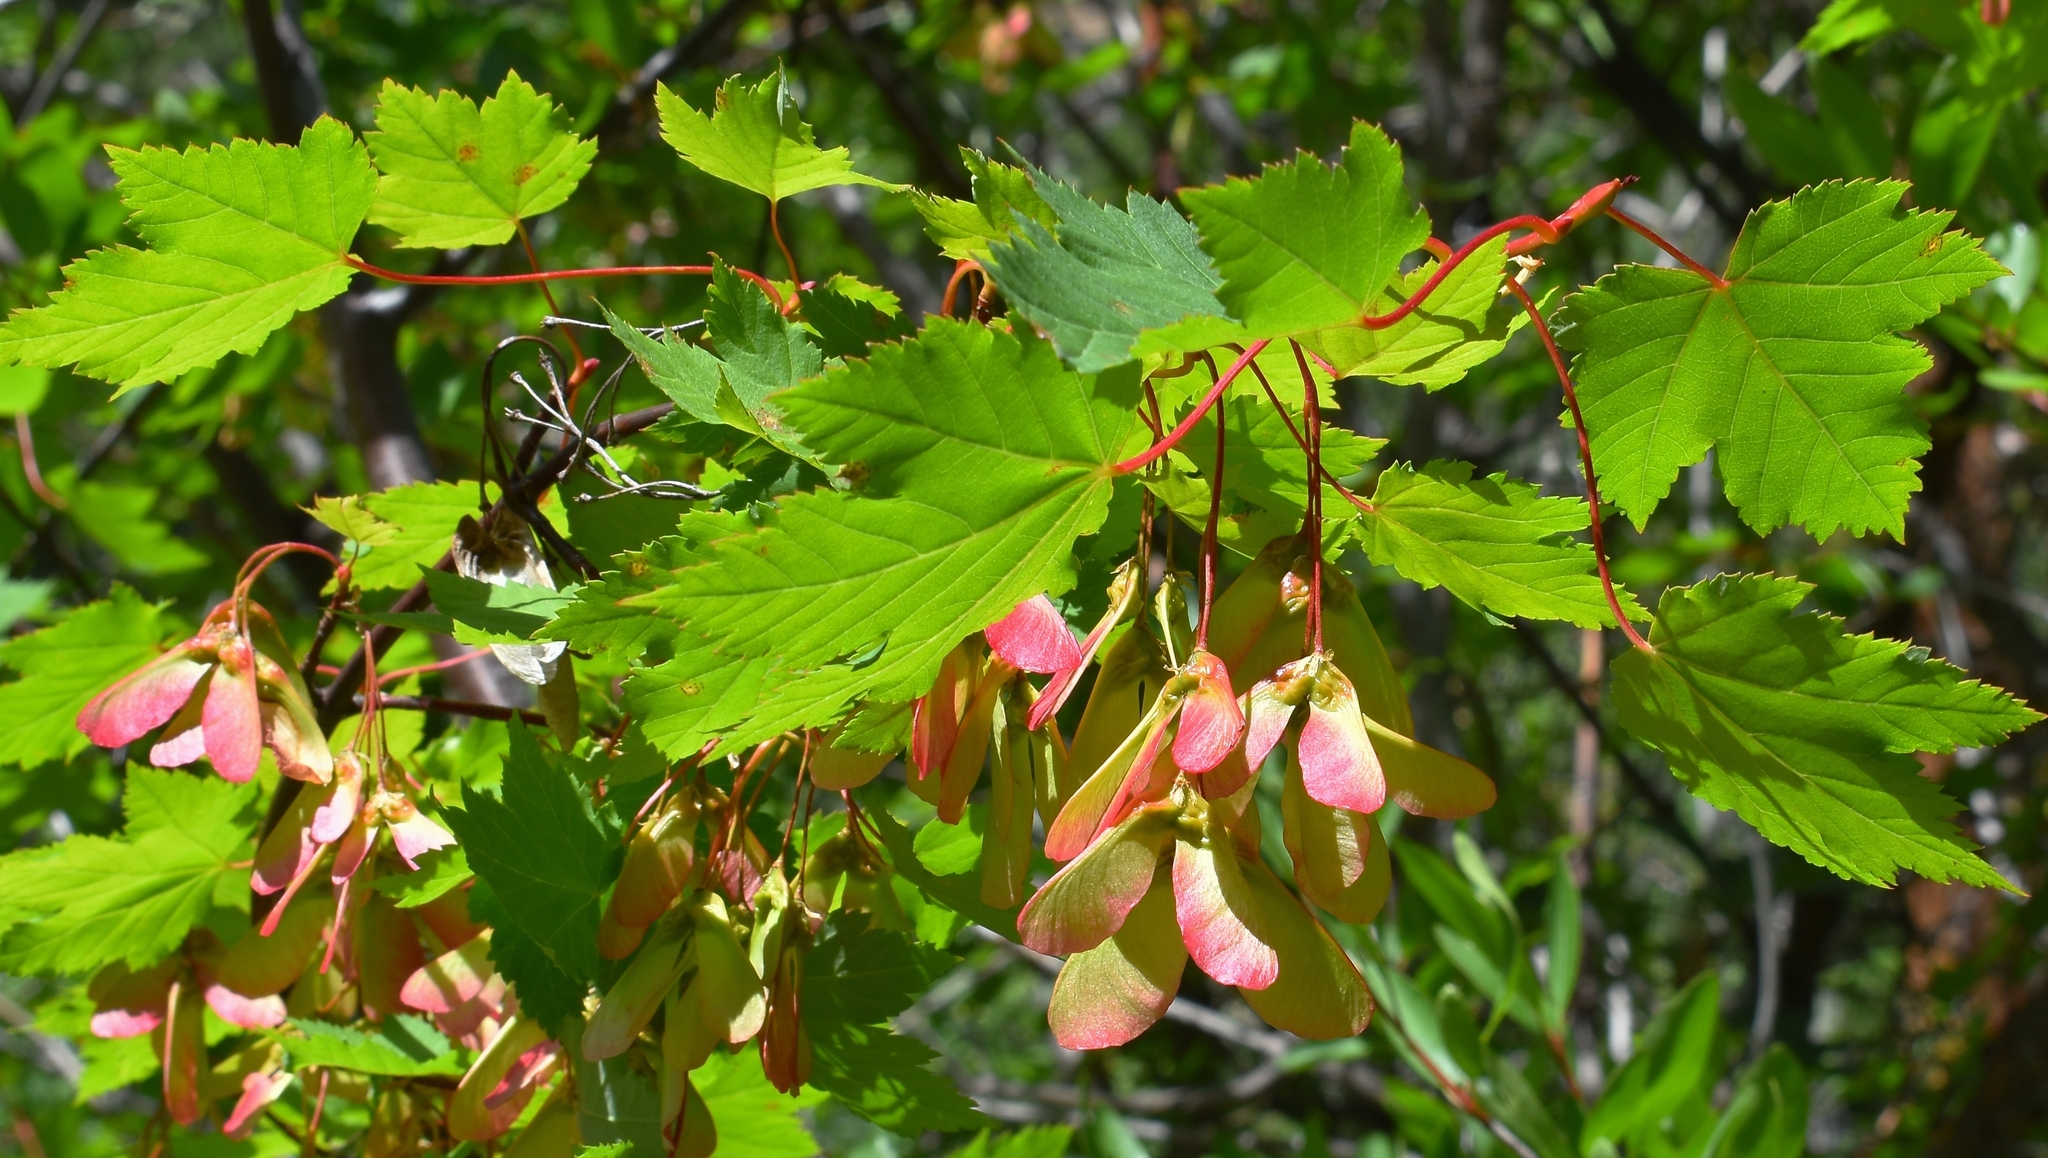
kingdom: Plantae
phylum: Tracheophyta
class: Magnoliopsida
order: Sapindales
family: Sapindaceae
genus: Acer
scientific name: Acer glabrum
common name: Rocky mountain maple
